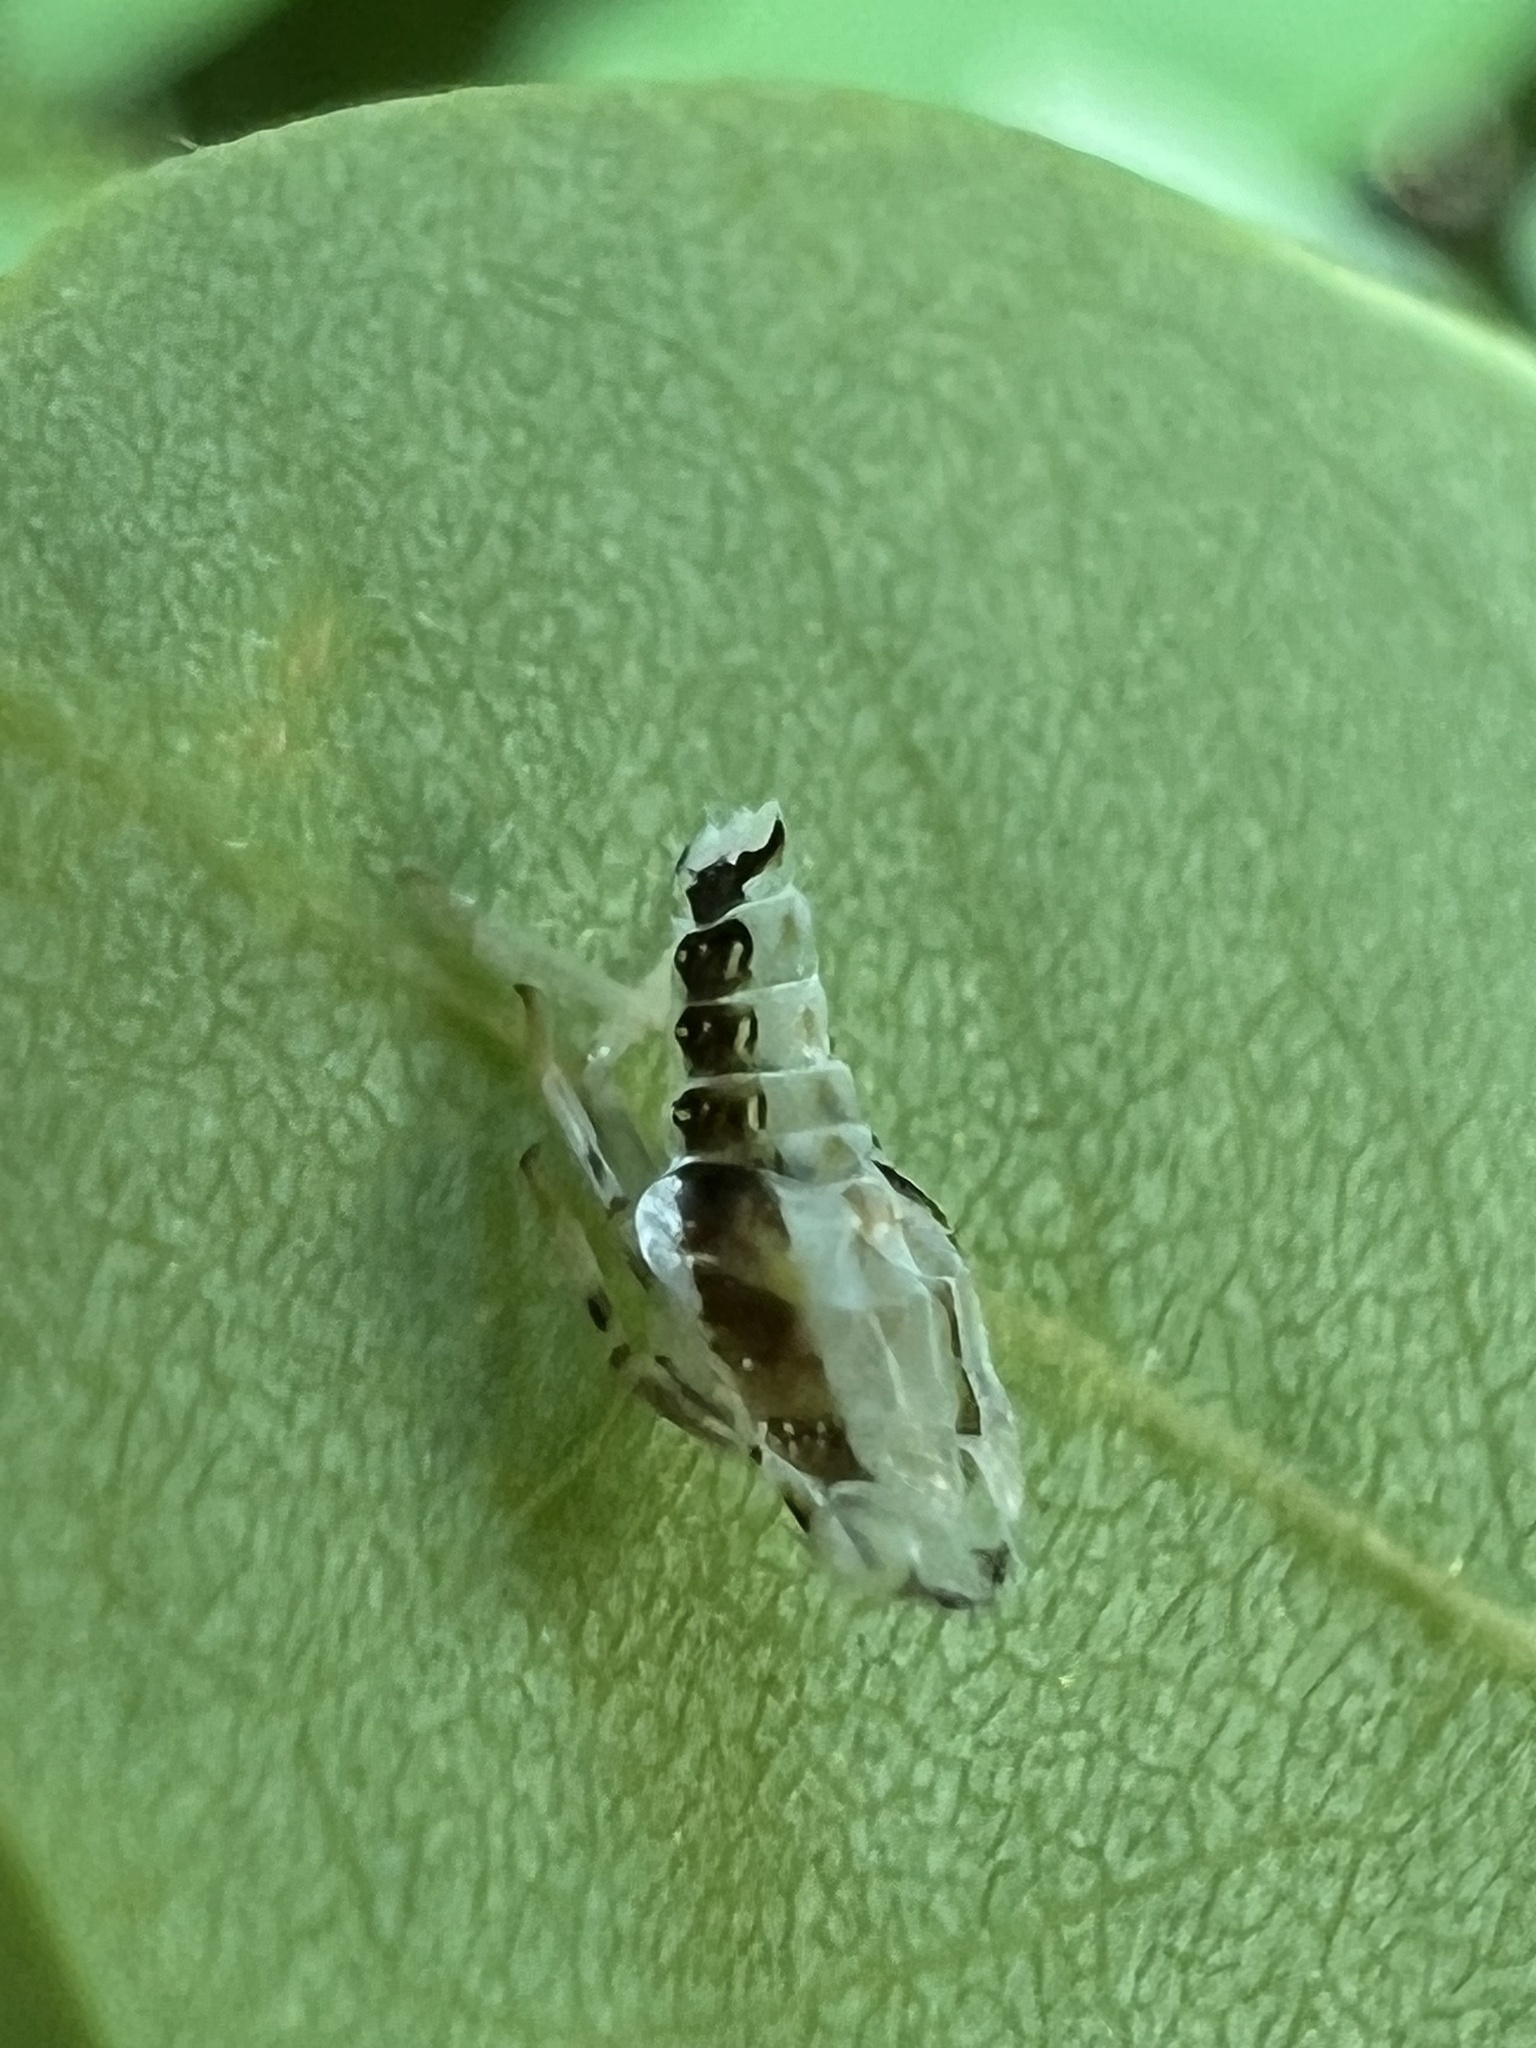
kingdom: Animalia
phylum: Arthropoda
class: Insecta
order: Hemiptera
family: Issidae
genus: Thionia
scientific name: Thionia bullata
